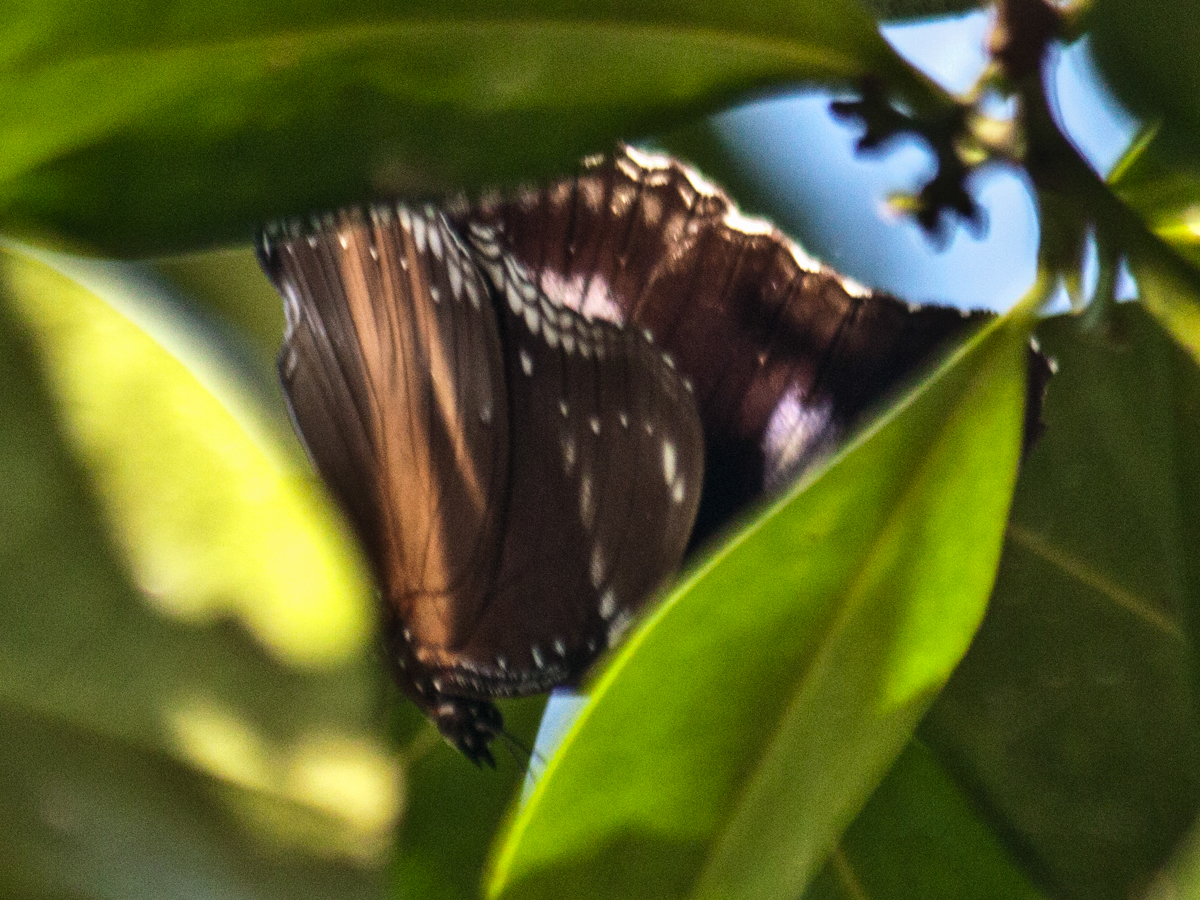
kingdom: Animalia
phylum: Arthropoda
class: Insecta
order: Lepidoptera
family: Nymphalidae
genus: Hypolimnas
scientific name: Hypolimnas bolina
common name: Great eggfly
